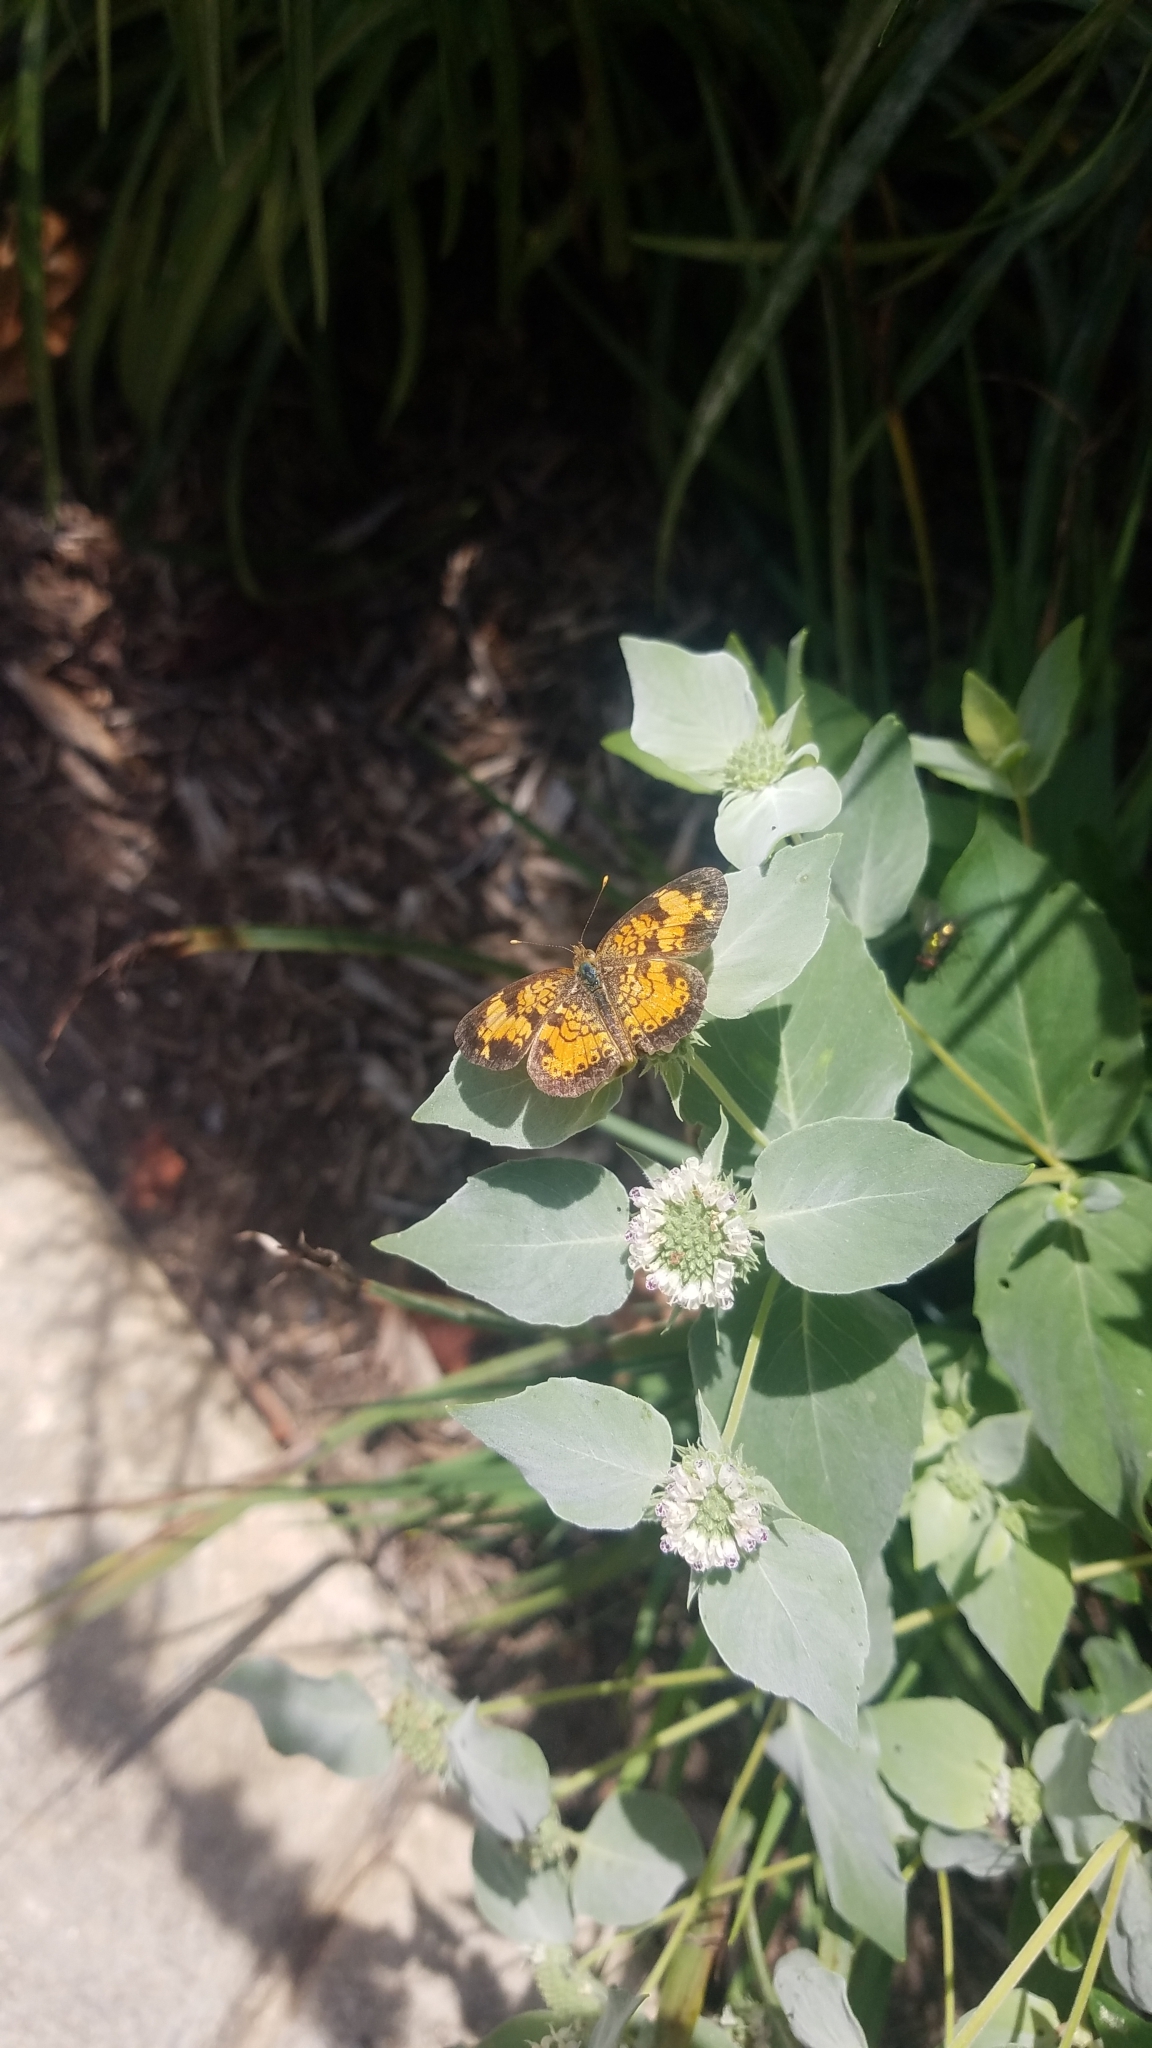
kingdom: Animalia
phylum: Arthropoda
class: Insecta
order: Lepidoptera
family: Nymphalidae
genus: Phyciodes
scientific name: Phyciodes tharos
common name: Pearl crescent
